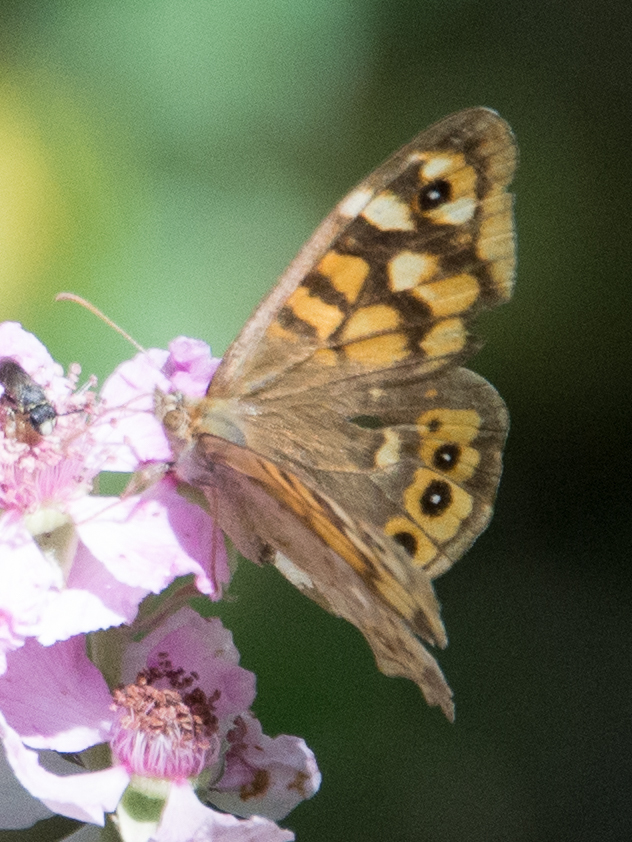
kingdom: Animalia
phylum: Arthropoda
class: Insecta
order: Lepidoptera
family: Nymphalidae
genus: Pararge
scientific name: Pararge aegeria
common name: Speckled wood
